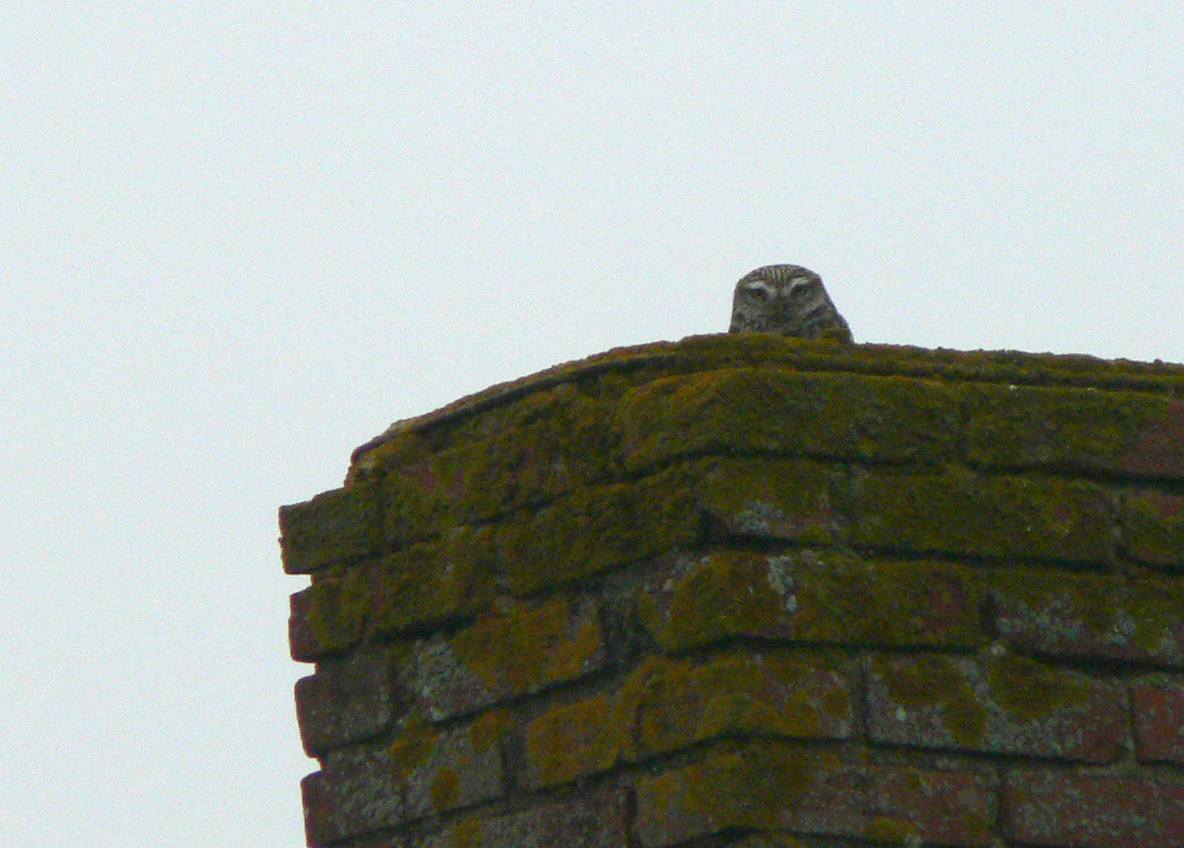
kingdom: Animalia
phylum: Chordata
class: Aves
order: Strigiformes
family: Strigidae
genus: Athene
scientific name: Athene noctua
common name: Little owl
